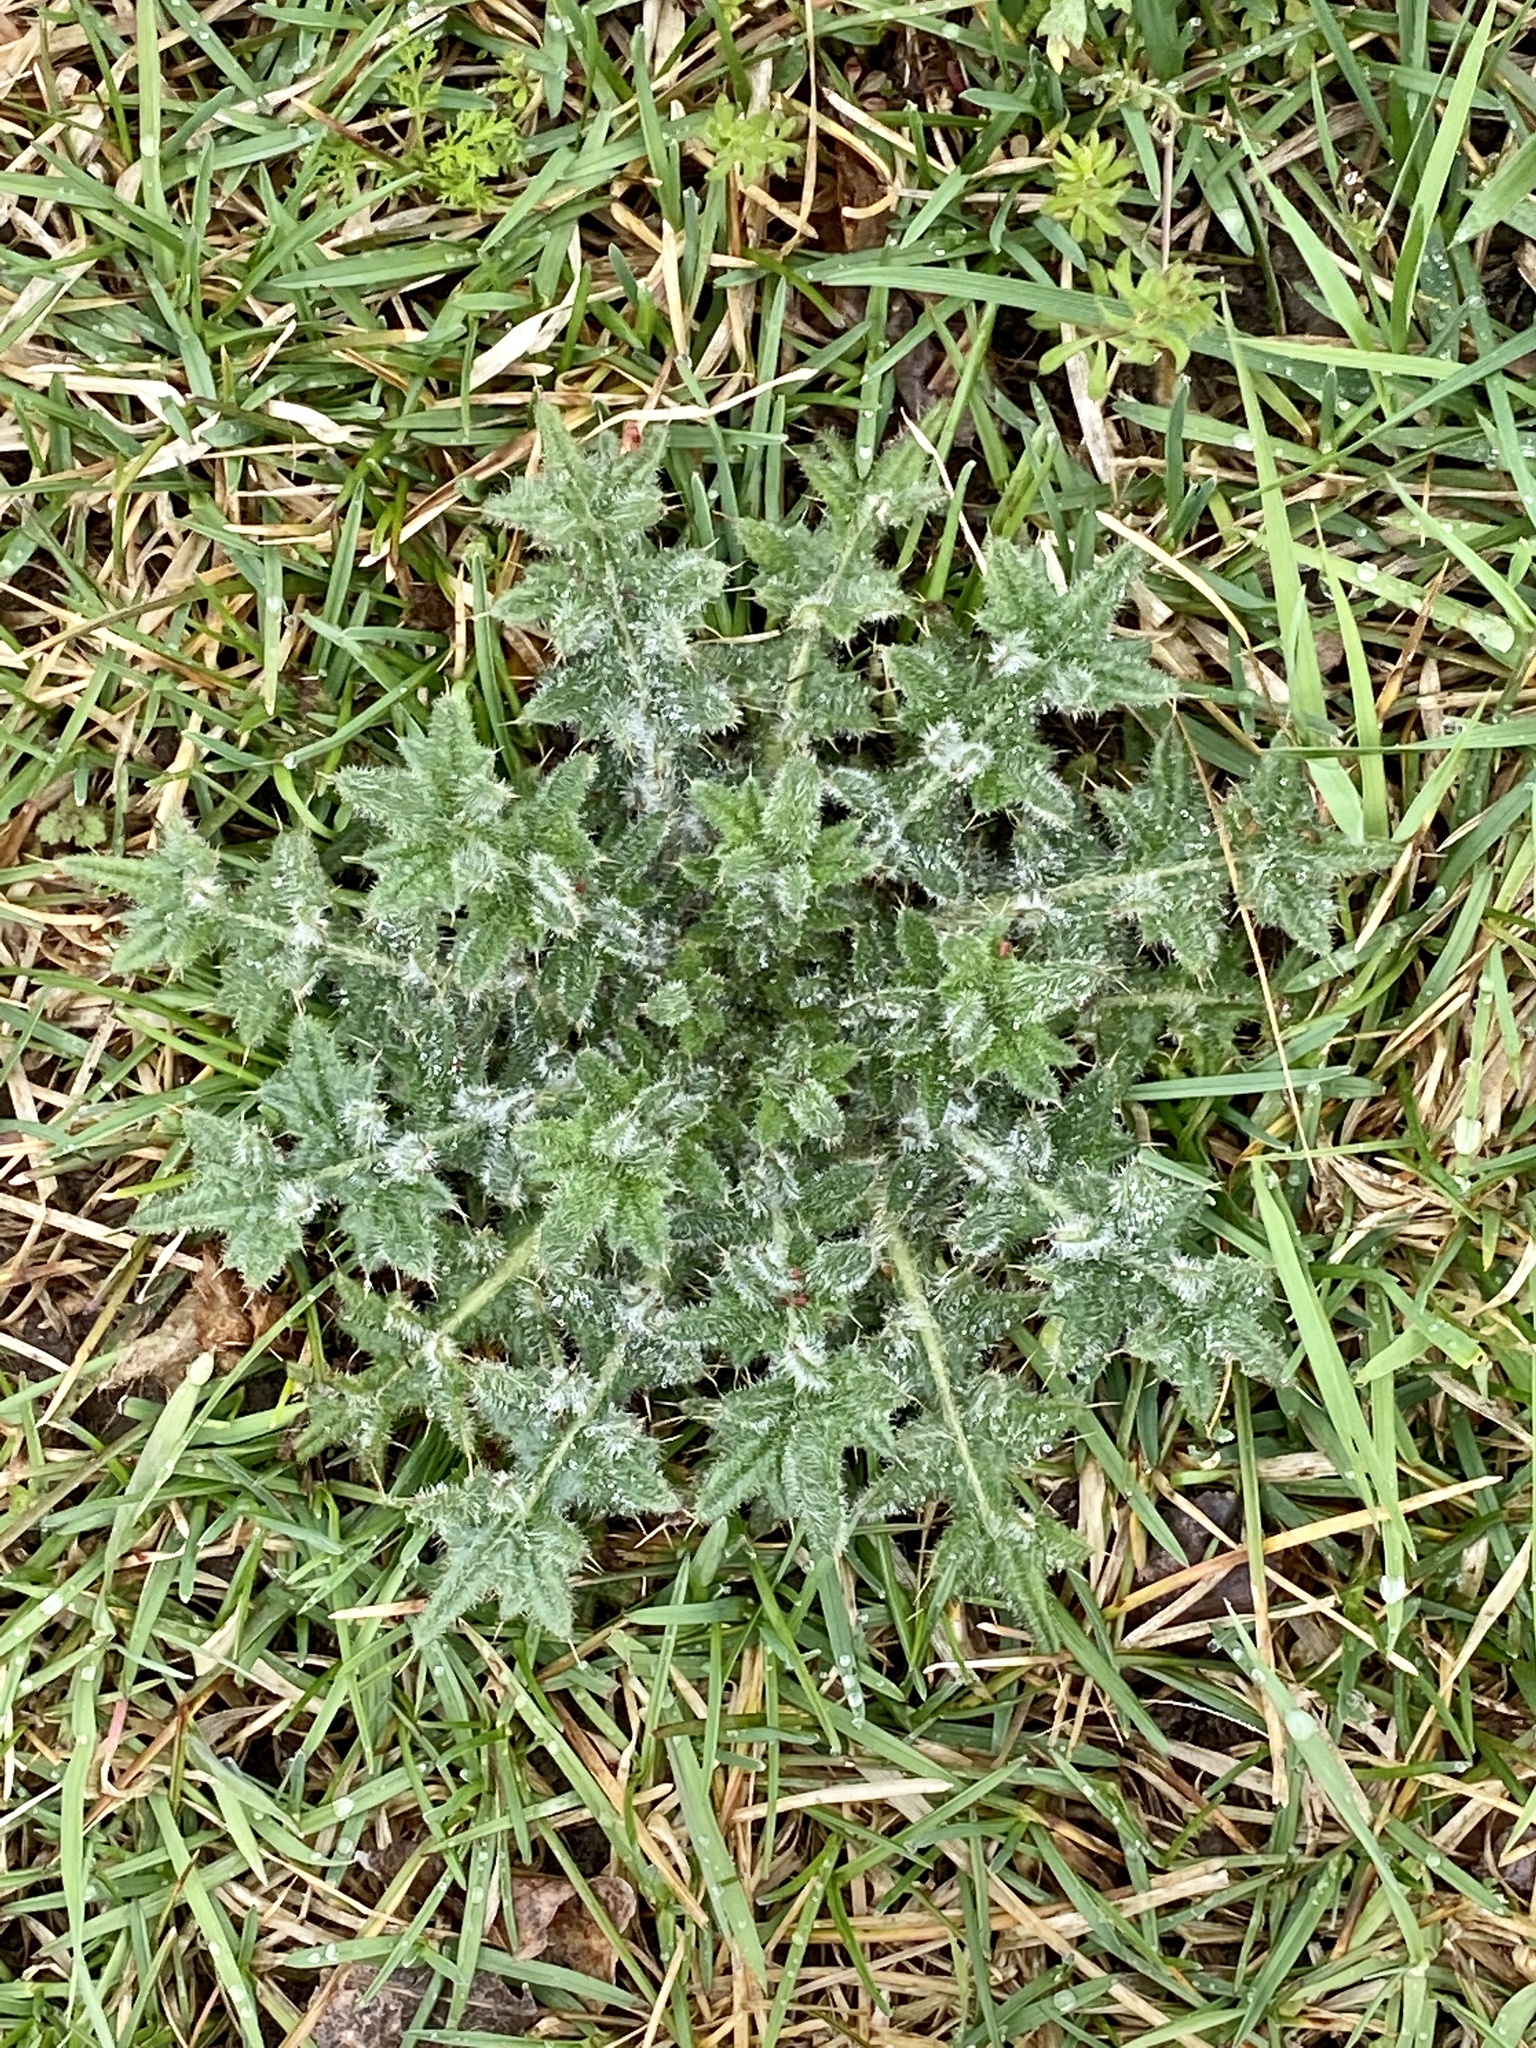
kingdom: Plantae
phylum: Tracheophyta
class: Magnoliopsida
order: Asterales
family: Asteraceae
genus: Cirsium
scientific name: Cirsium vulgare
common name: Bull thistle
